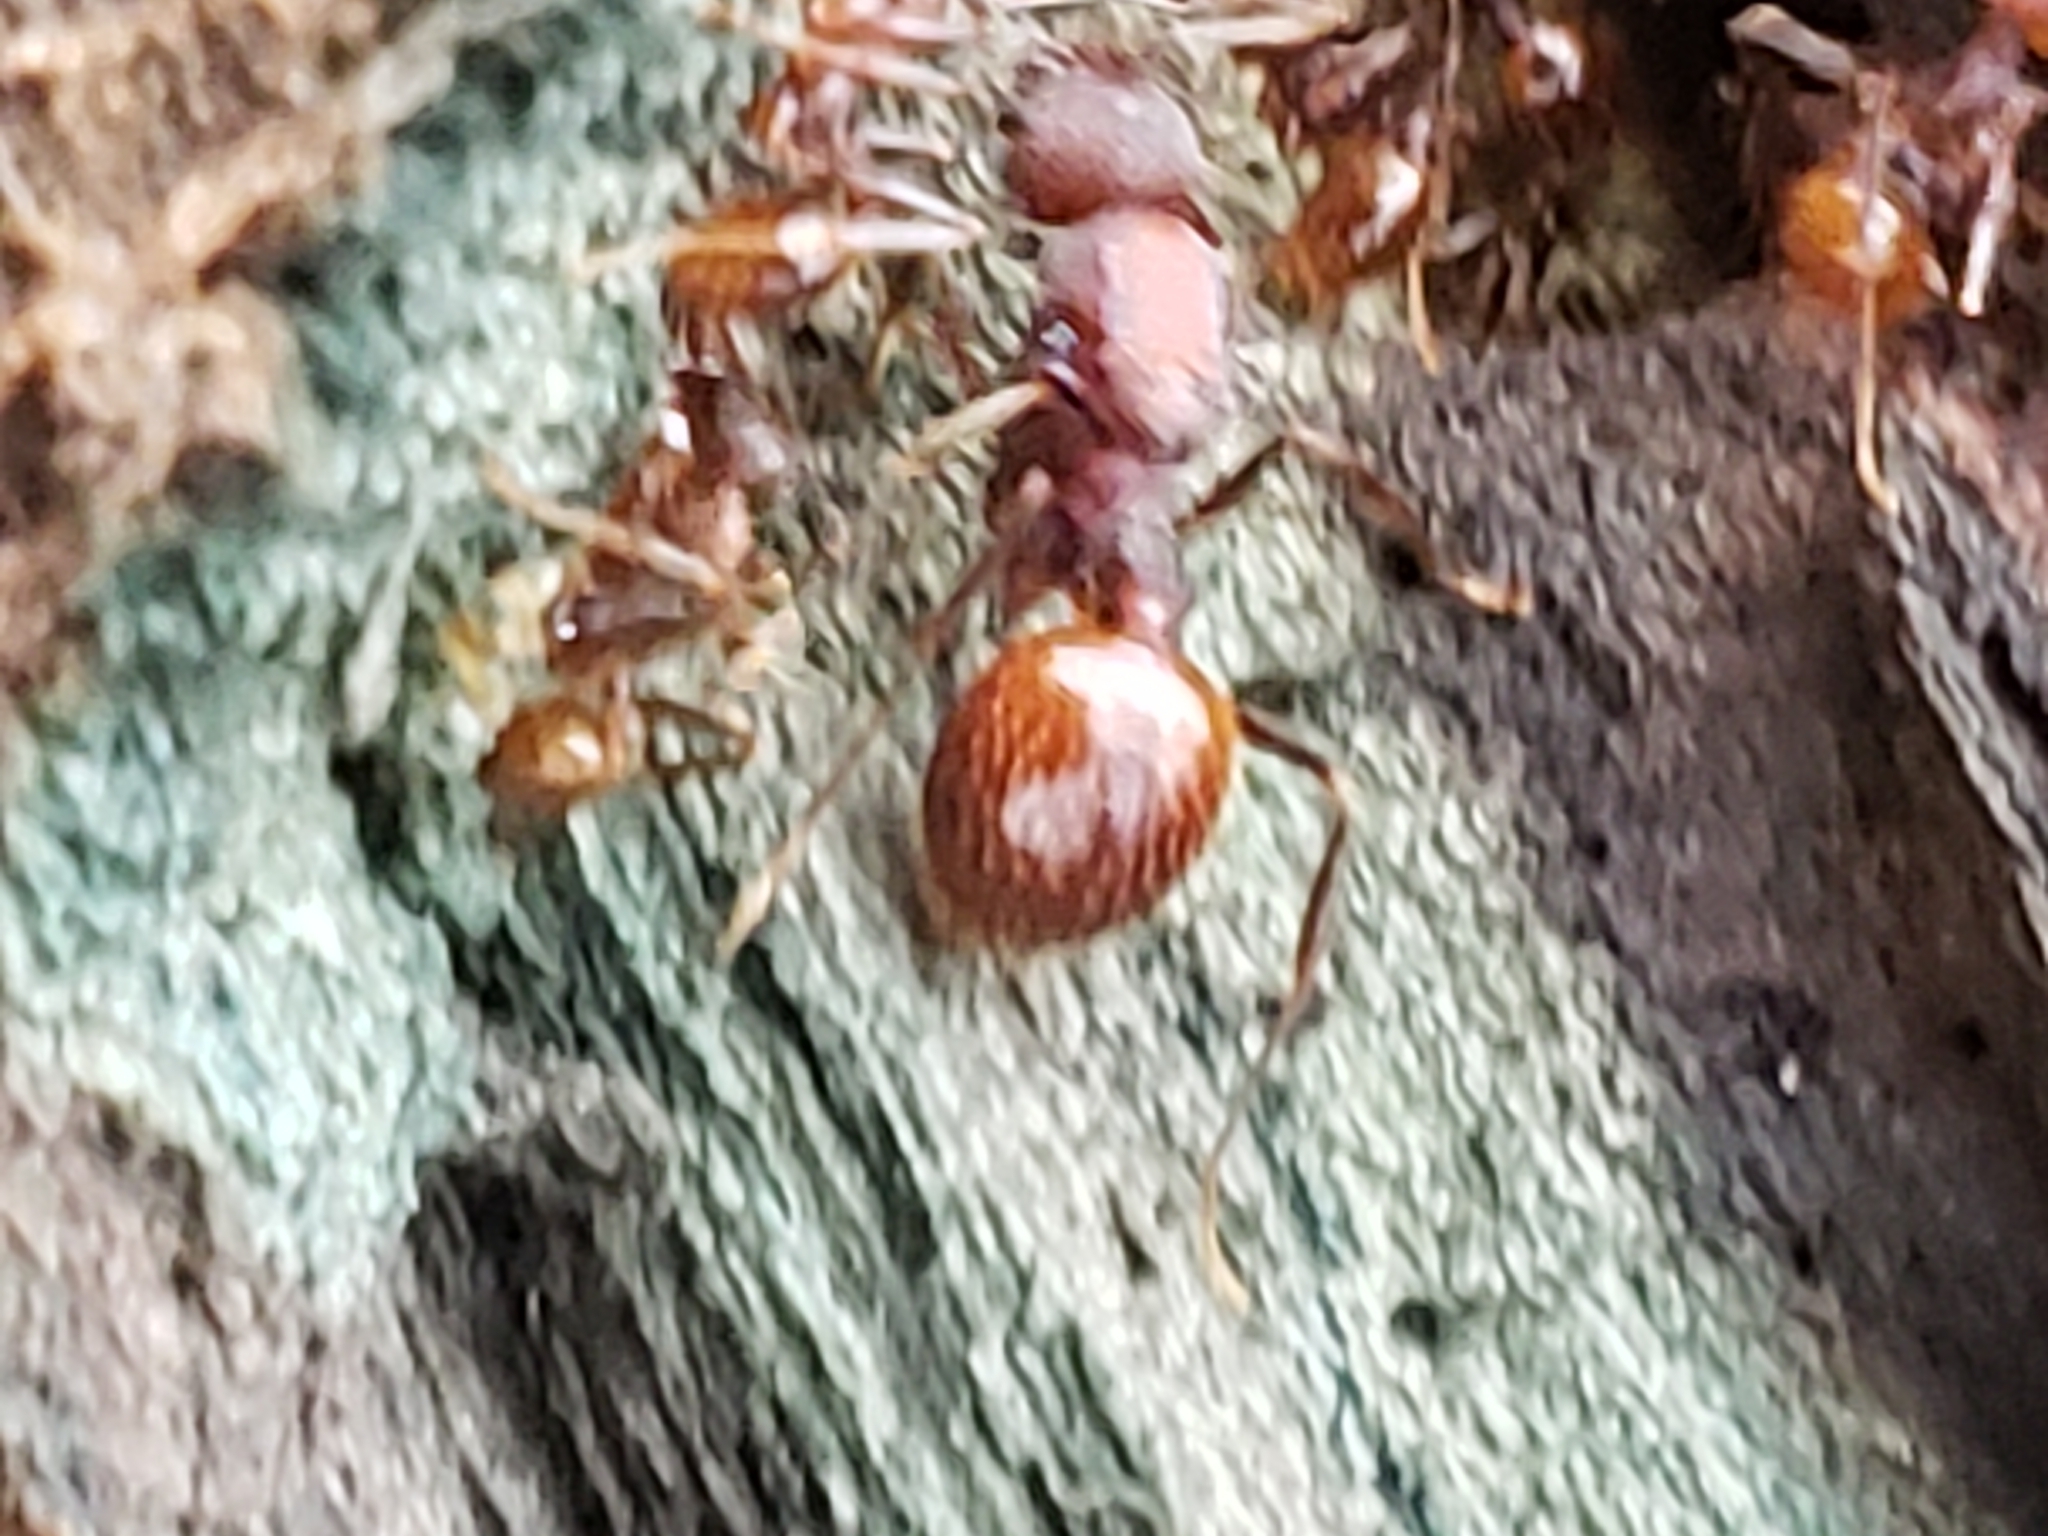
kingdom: Animalia
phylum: Arthropoda
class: Insecta
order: Hymenoptera
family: Formicidae
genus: Aphaenogaster
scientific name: Aphaenogaster fulva
